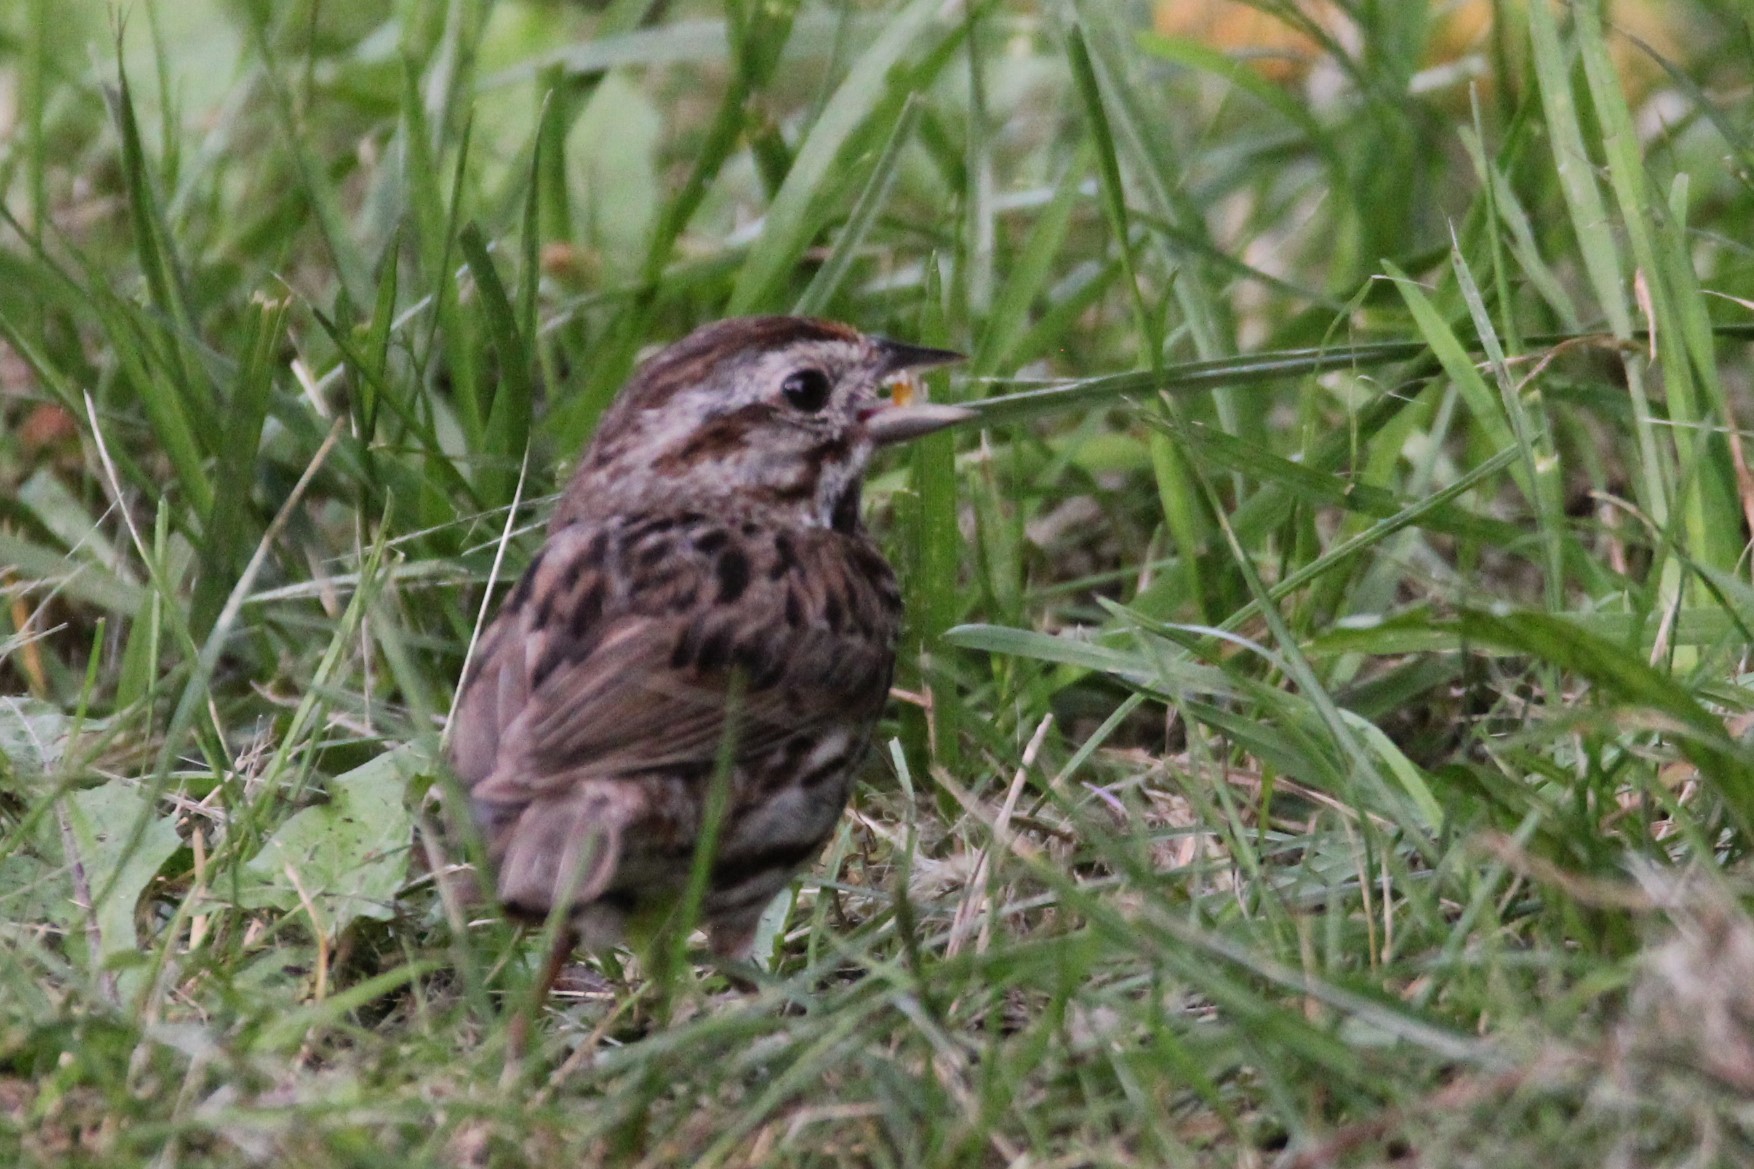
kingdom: Animalia
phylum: Chordata
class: Aves
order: Passeriformes
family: Passerellidae
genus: Melospiza
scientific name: Melospiza melodia
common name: Song sparrow
